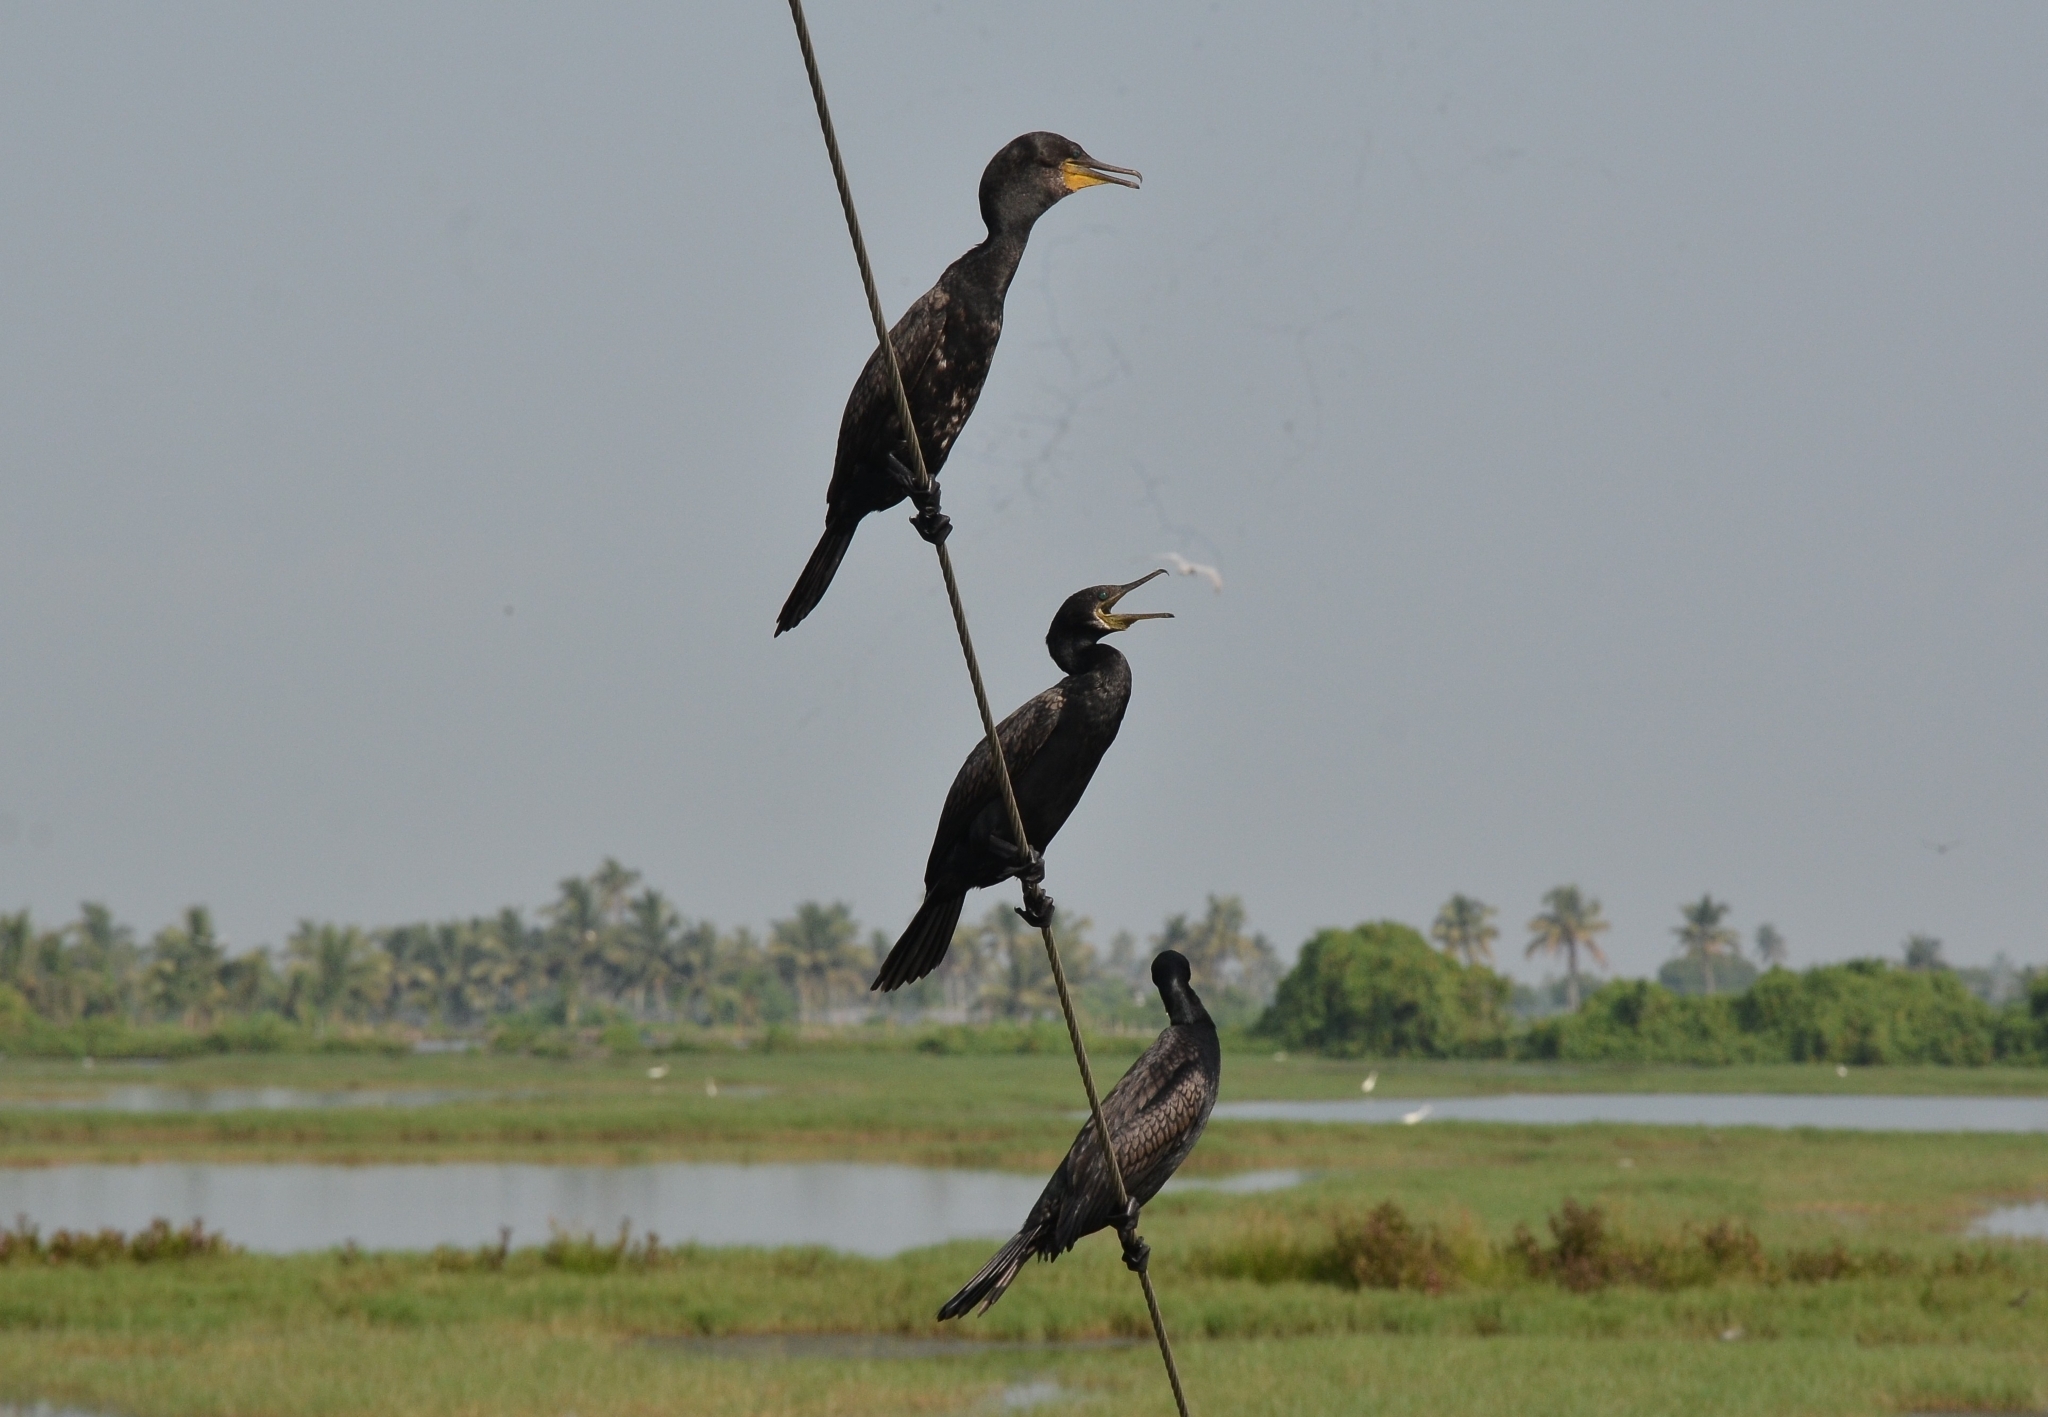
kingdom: Animalia
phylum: Chordata
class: Aves
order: Suliformes
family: Phalacrocoracidae
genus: Phalacrocorax
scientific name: Phalacrocorax fuscicollis
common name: Indian cormorant
